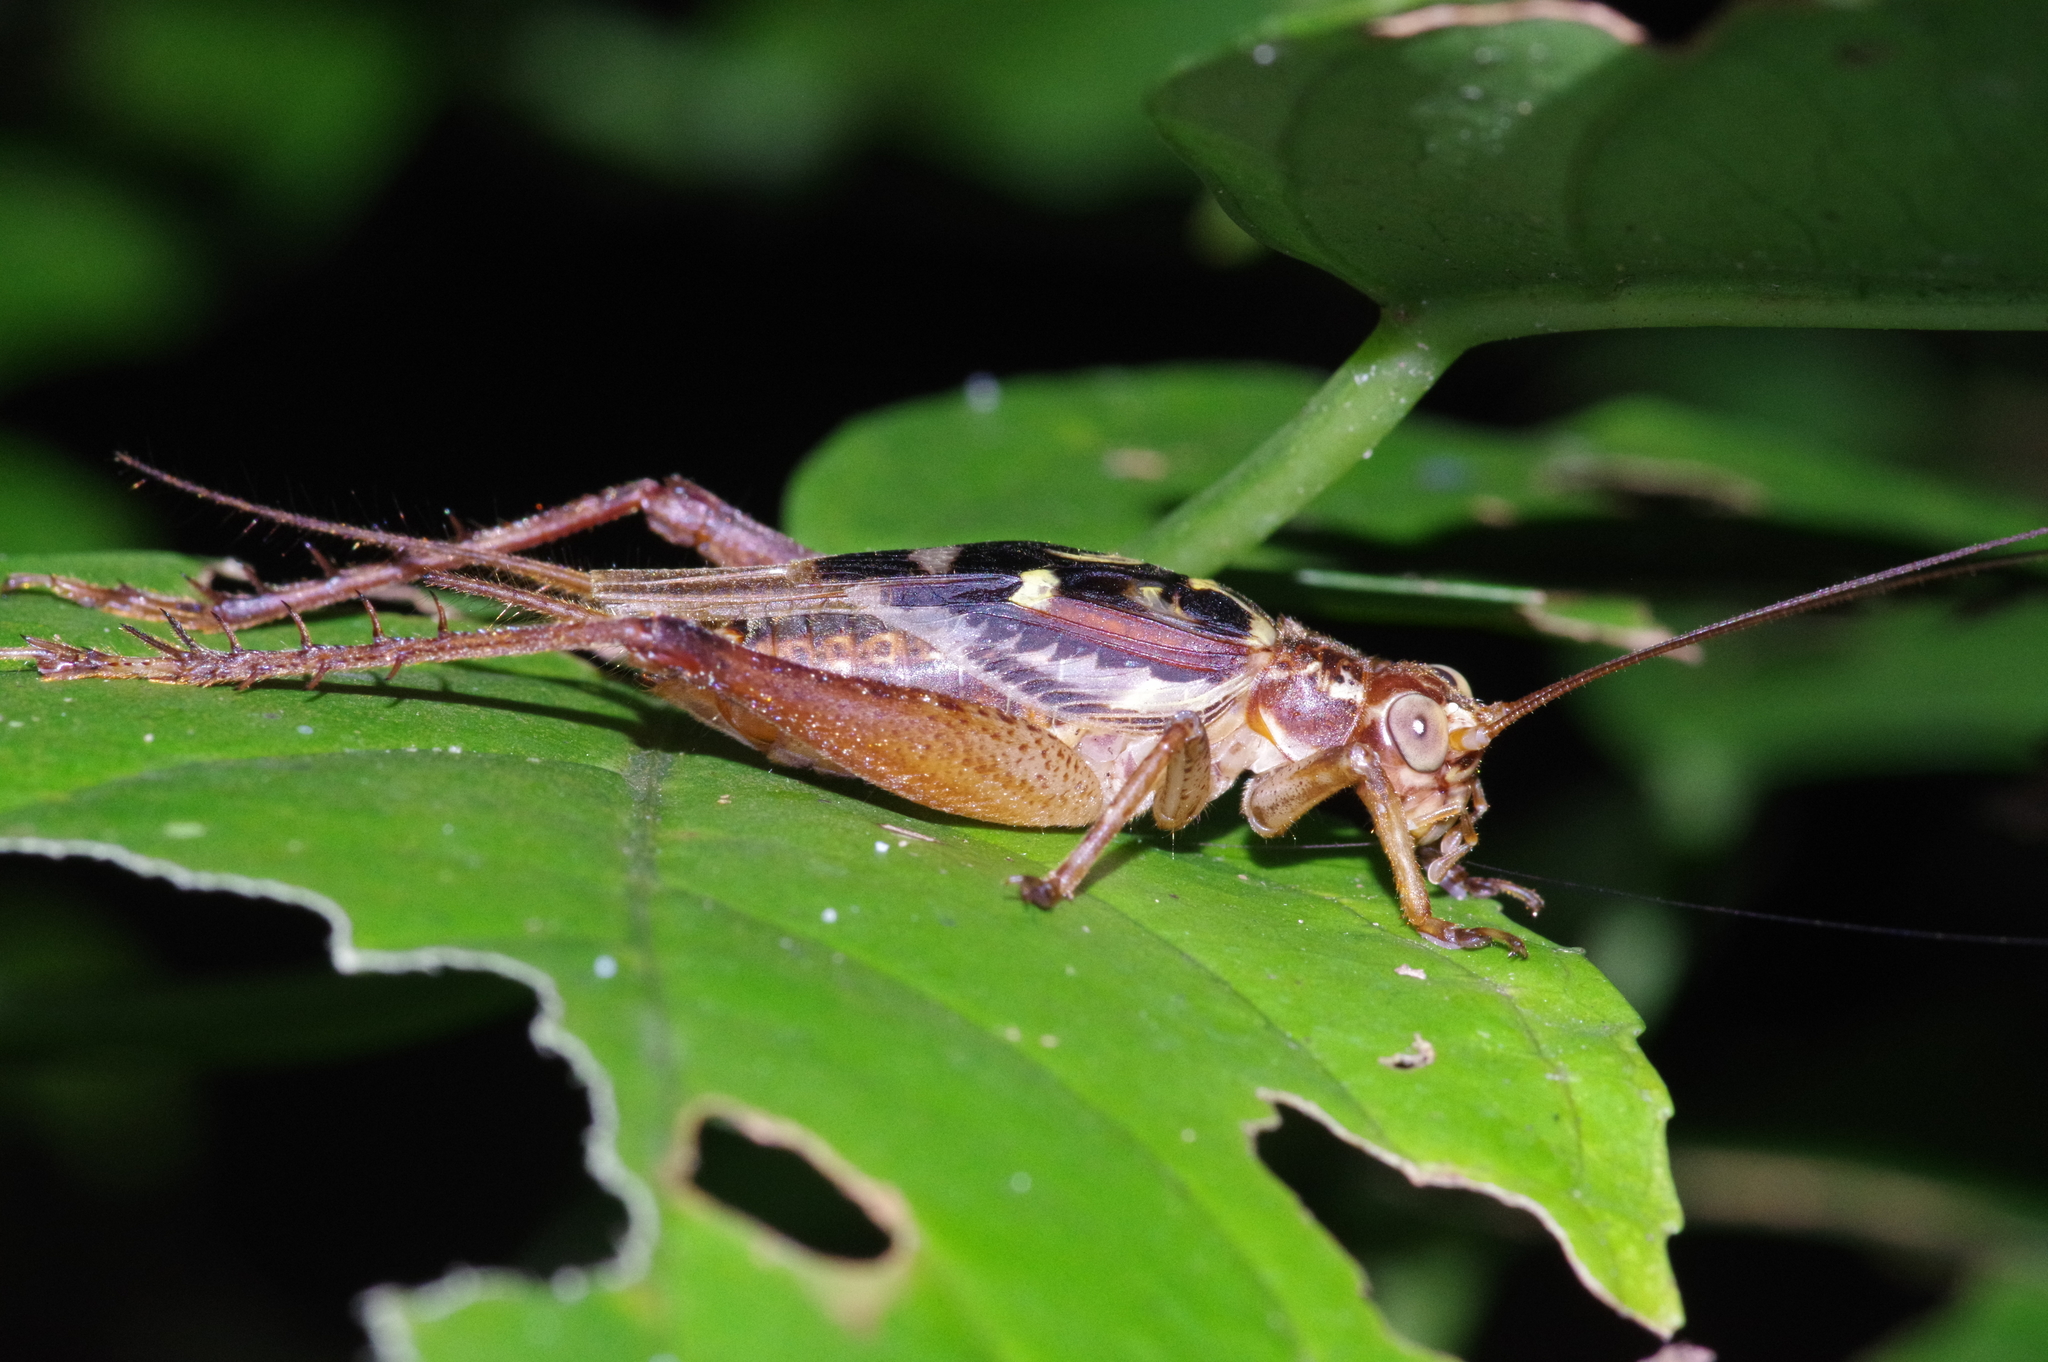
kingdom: Animalia
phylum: Arthropoda
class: Insecta
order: Orthoptera
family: Gryllidae
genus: Cardiodactylus
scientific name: Cardiodactylus guttulus
